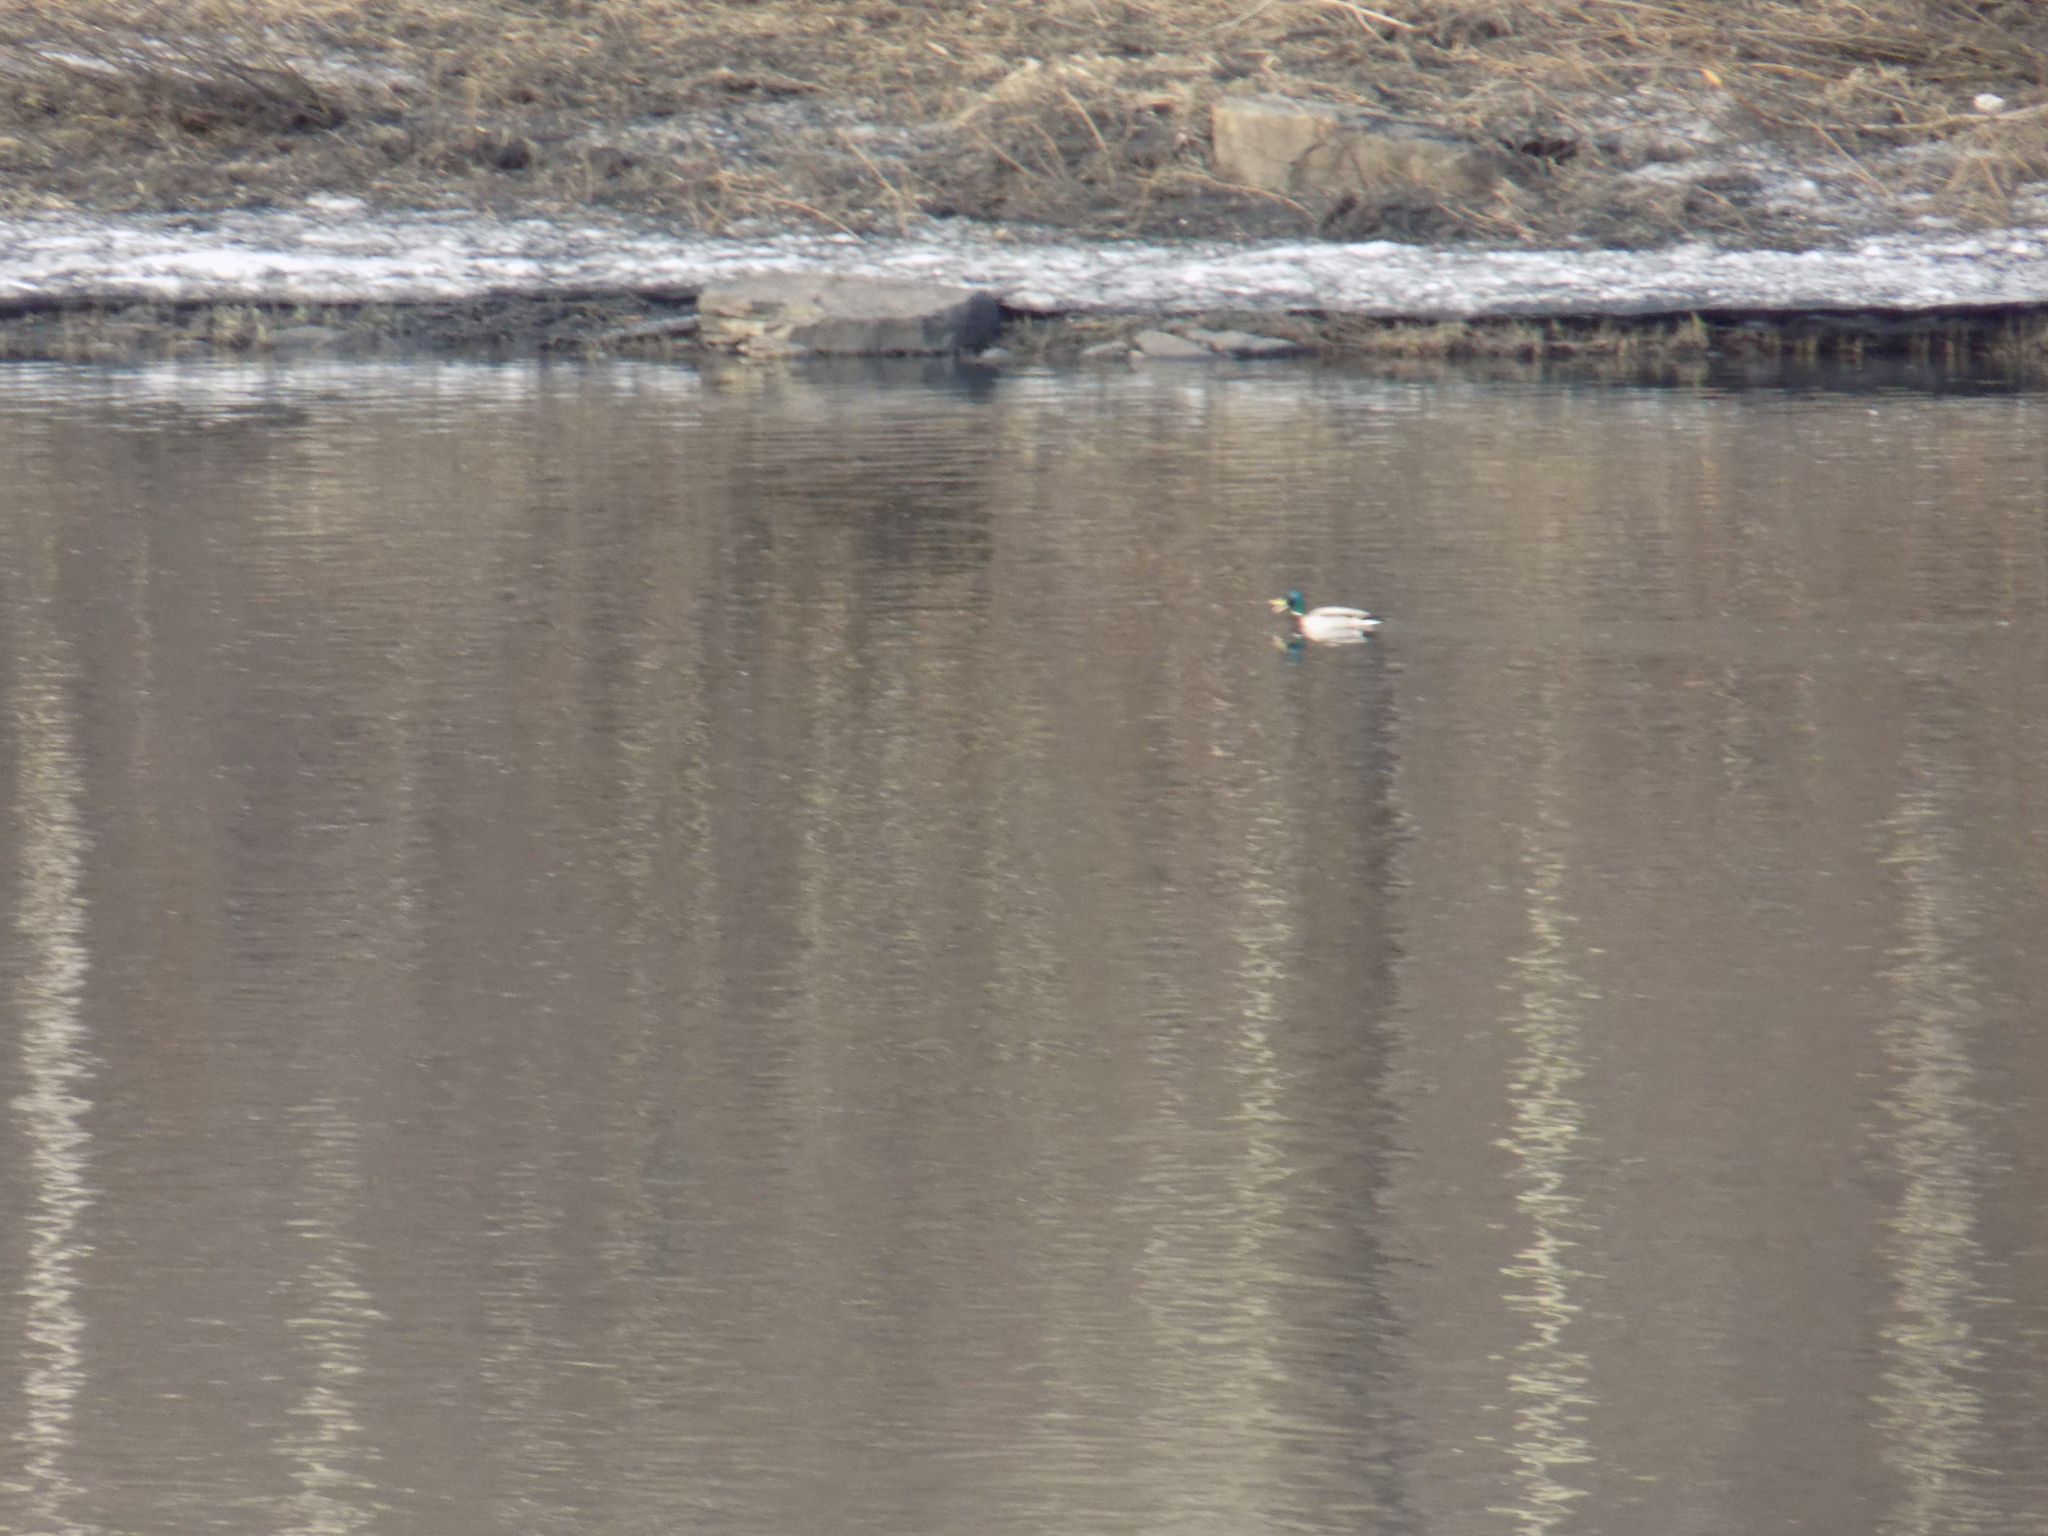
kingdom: Animalia
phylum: Chordata
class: Aves
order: Anseriformes
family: Anatidae
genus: Anas
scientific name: Anas platyrhynchos
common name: Mallard
